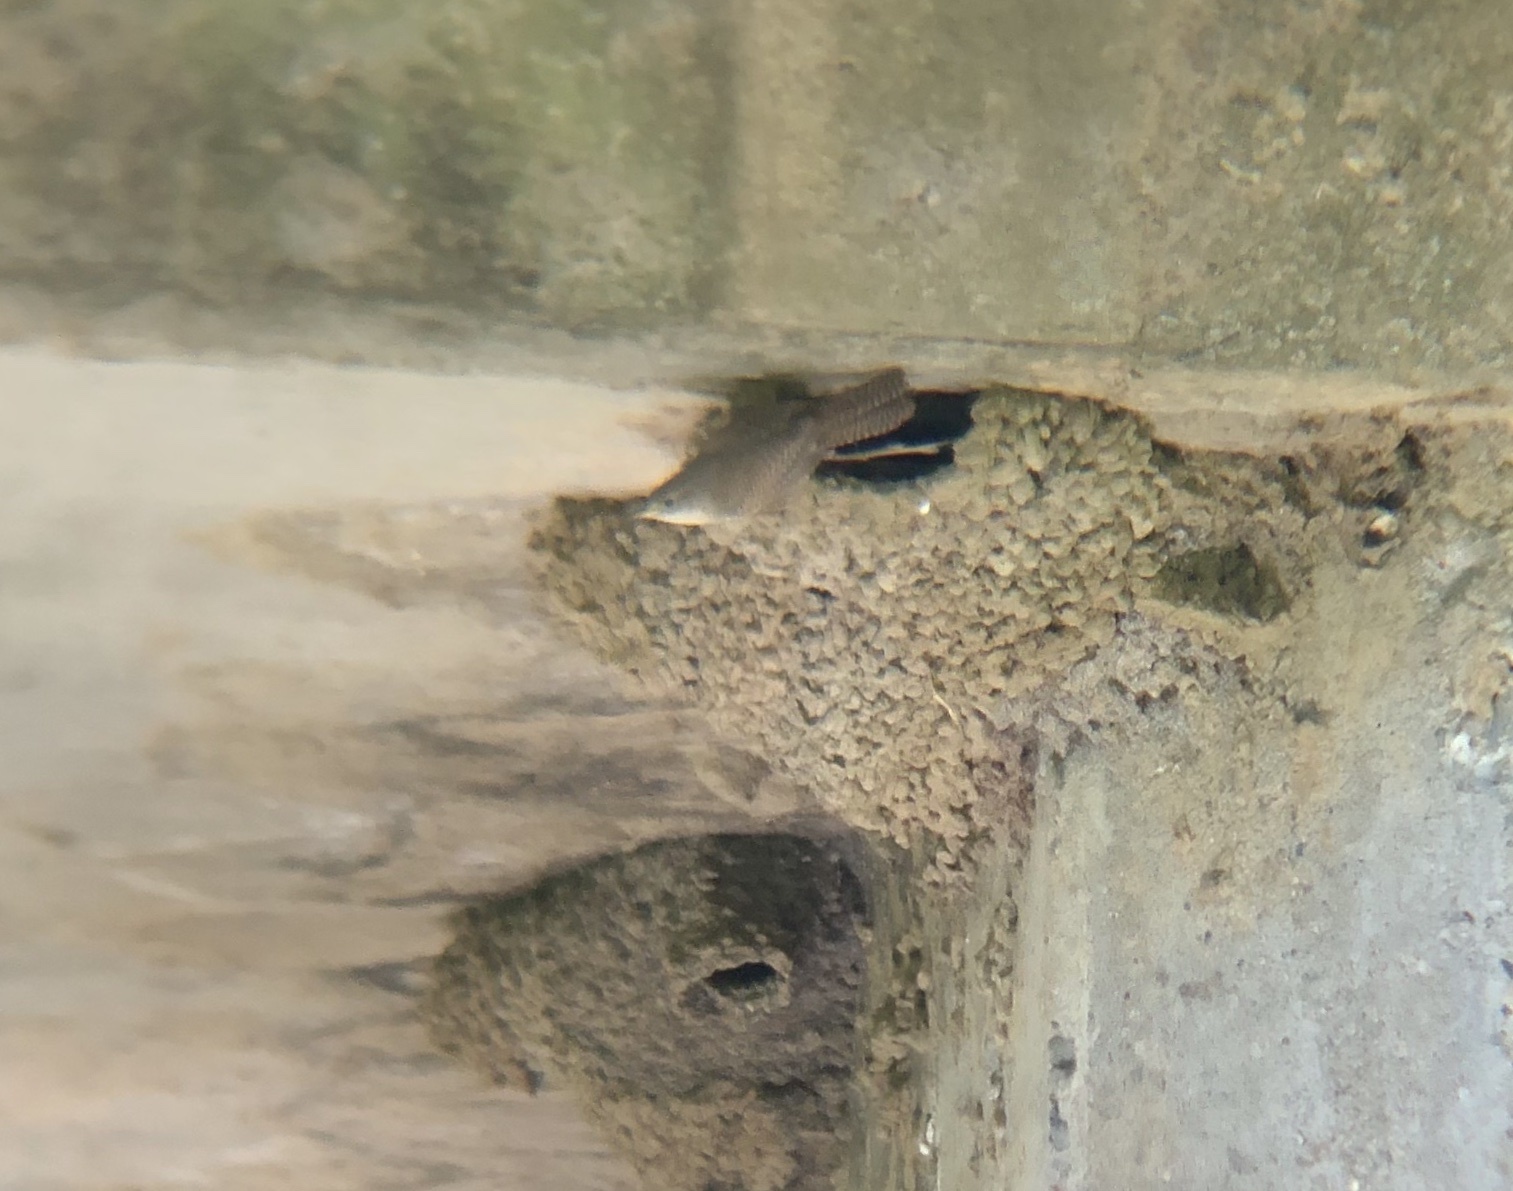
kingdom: Animalia
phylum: Chordata
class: Aves
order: Passeriformes
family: Troglodytidae
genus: Troglodytes
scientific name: Troglodytes aedon
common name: House wren
